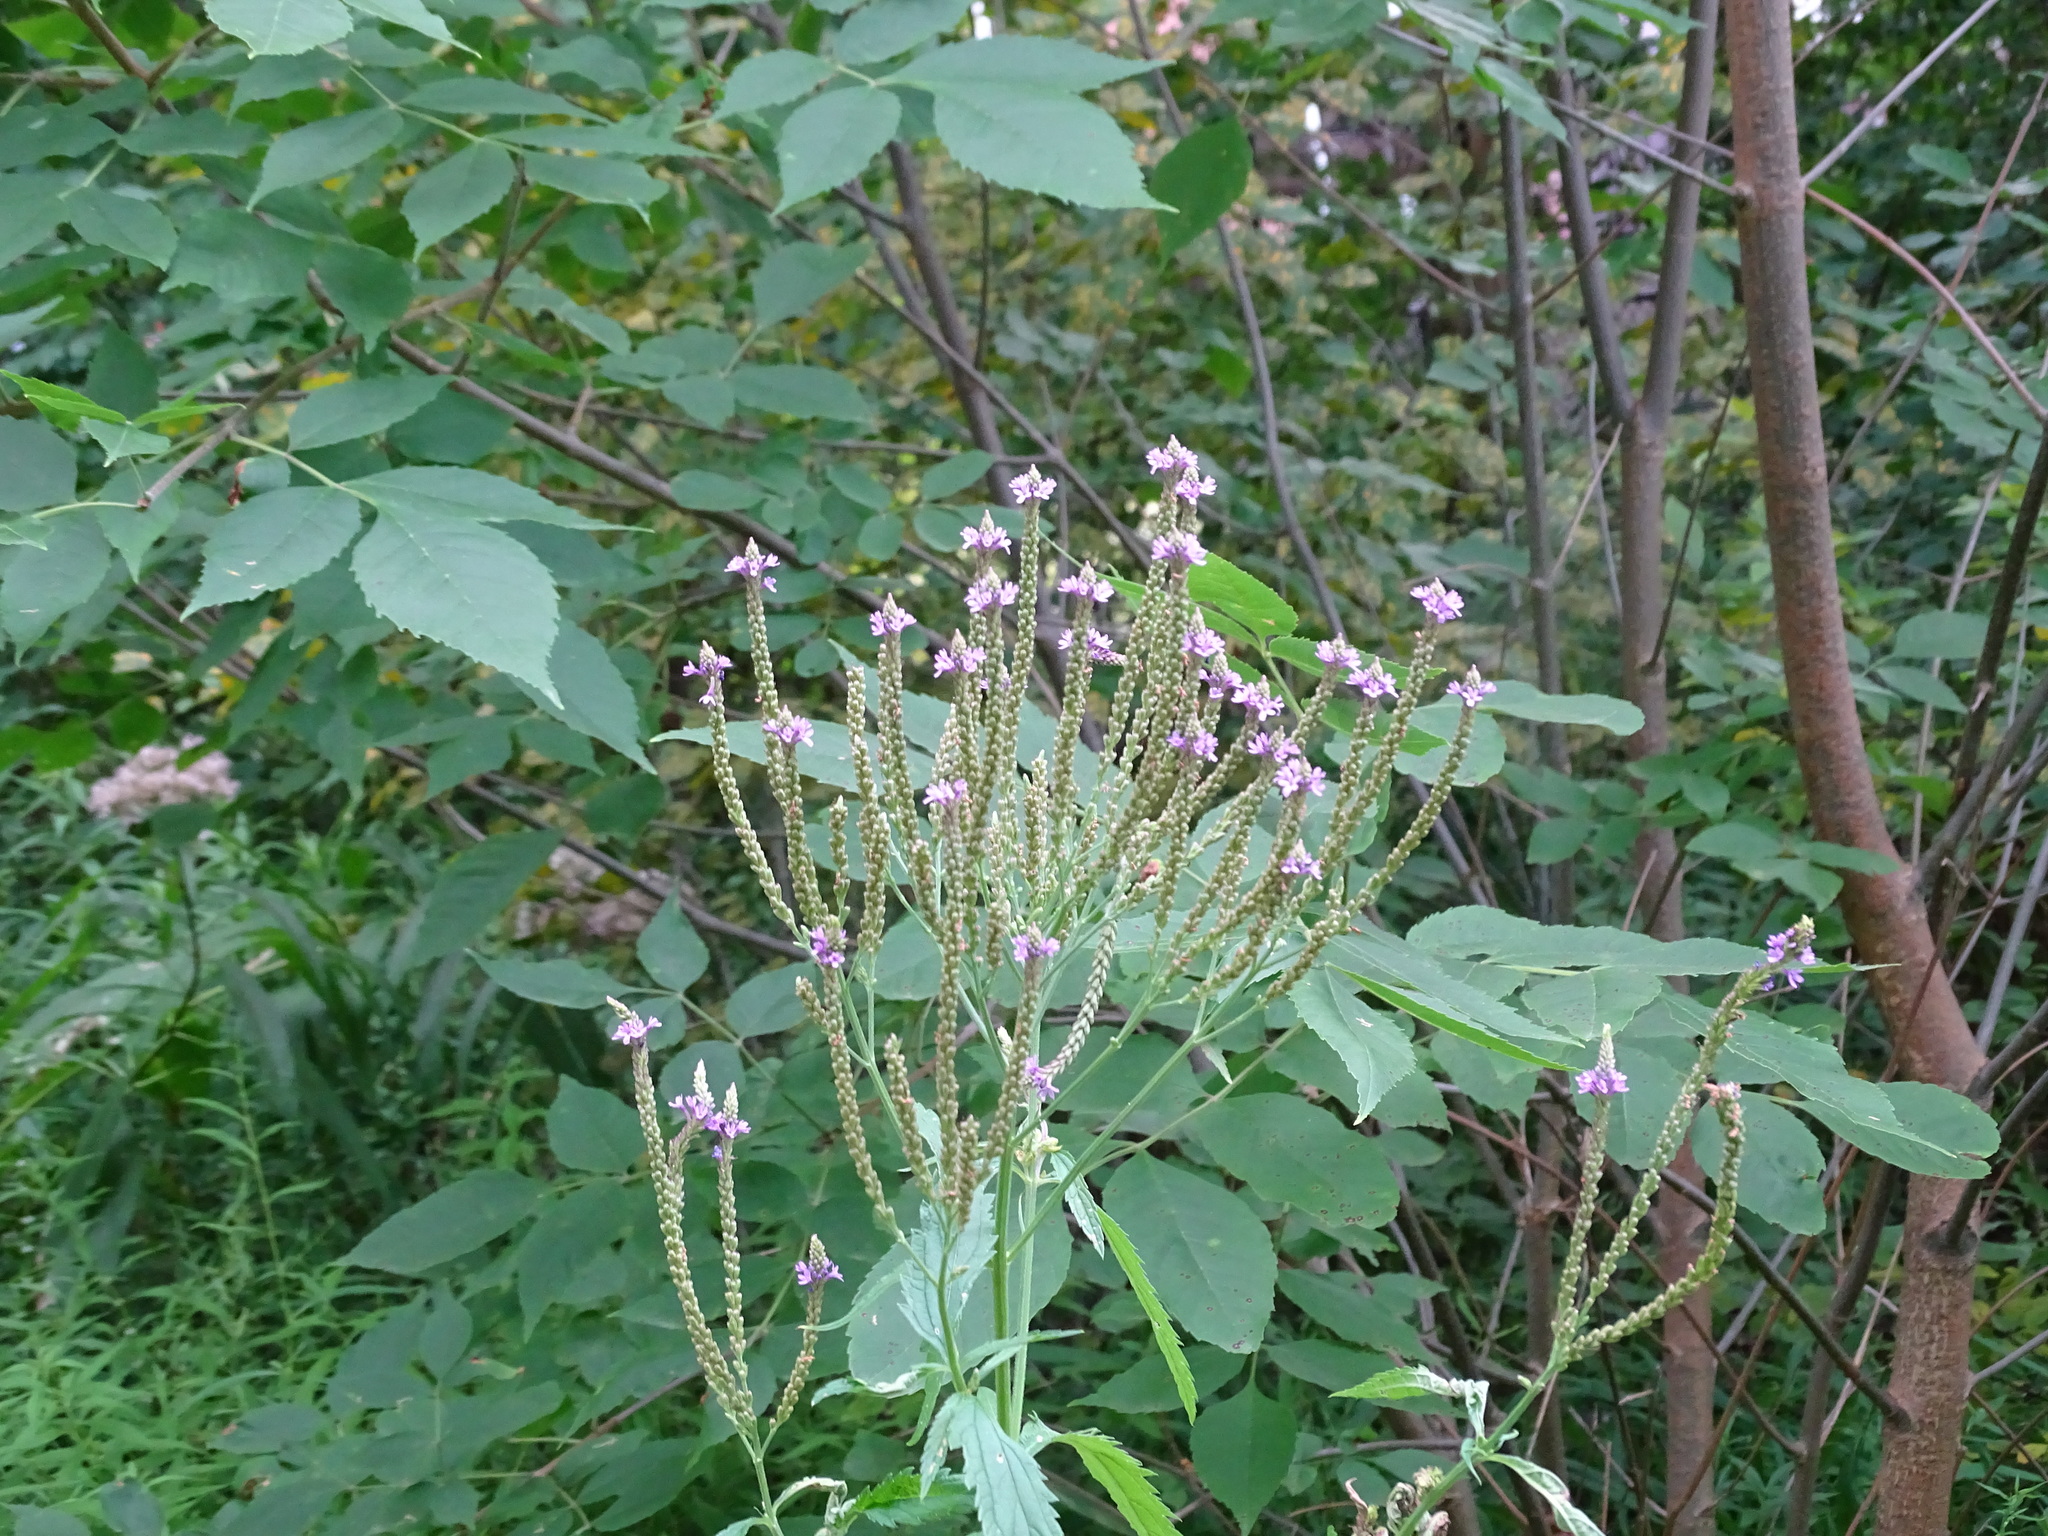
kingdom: Plantae
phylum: Tracheophyta
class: Magnoliopsida
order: Lamiales
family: Verbenaceae
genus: Verbena
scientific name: Verbena hastata
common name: American blue vervain
